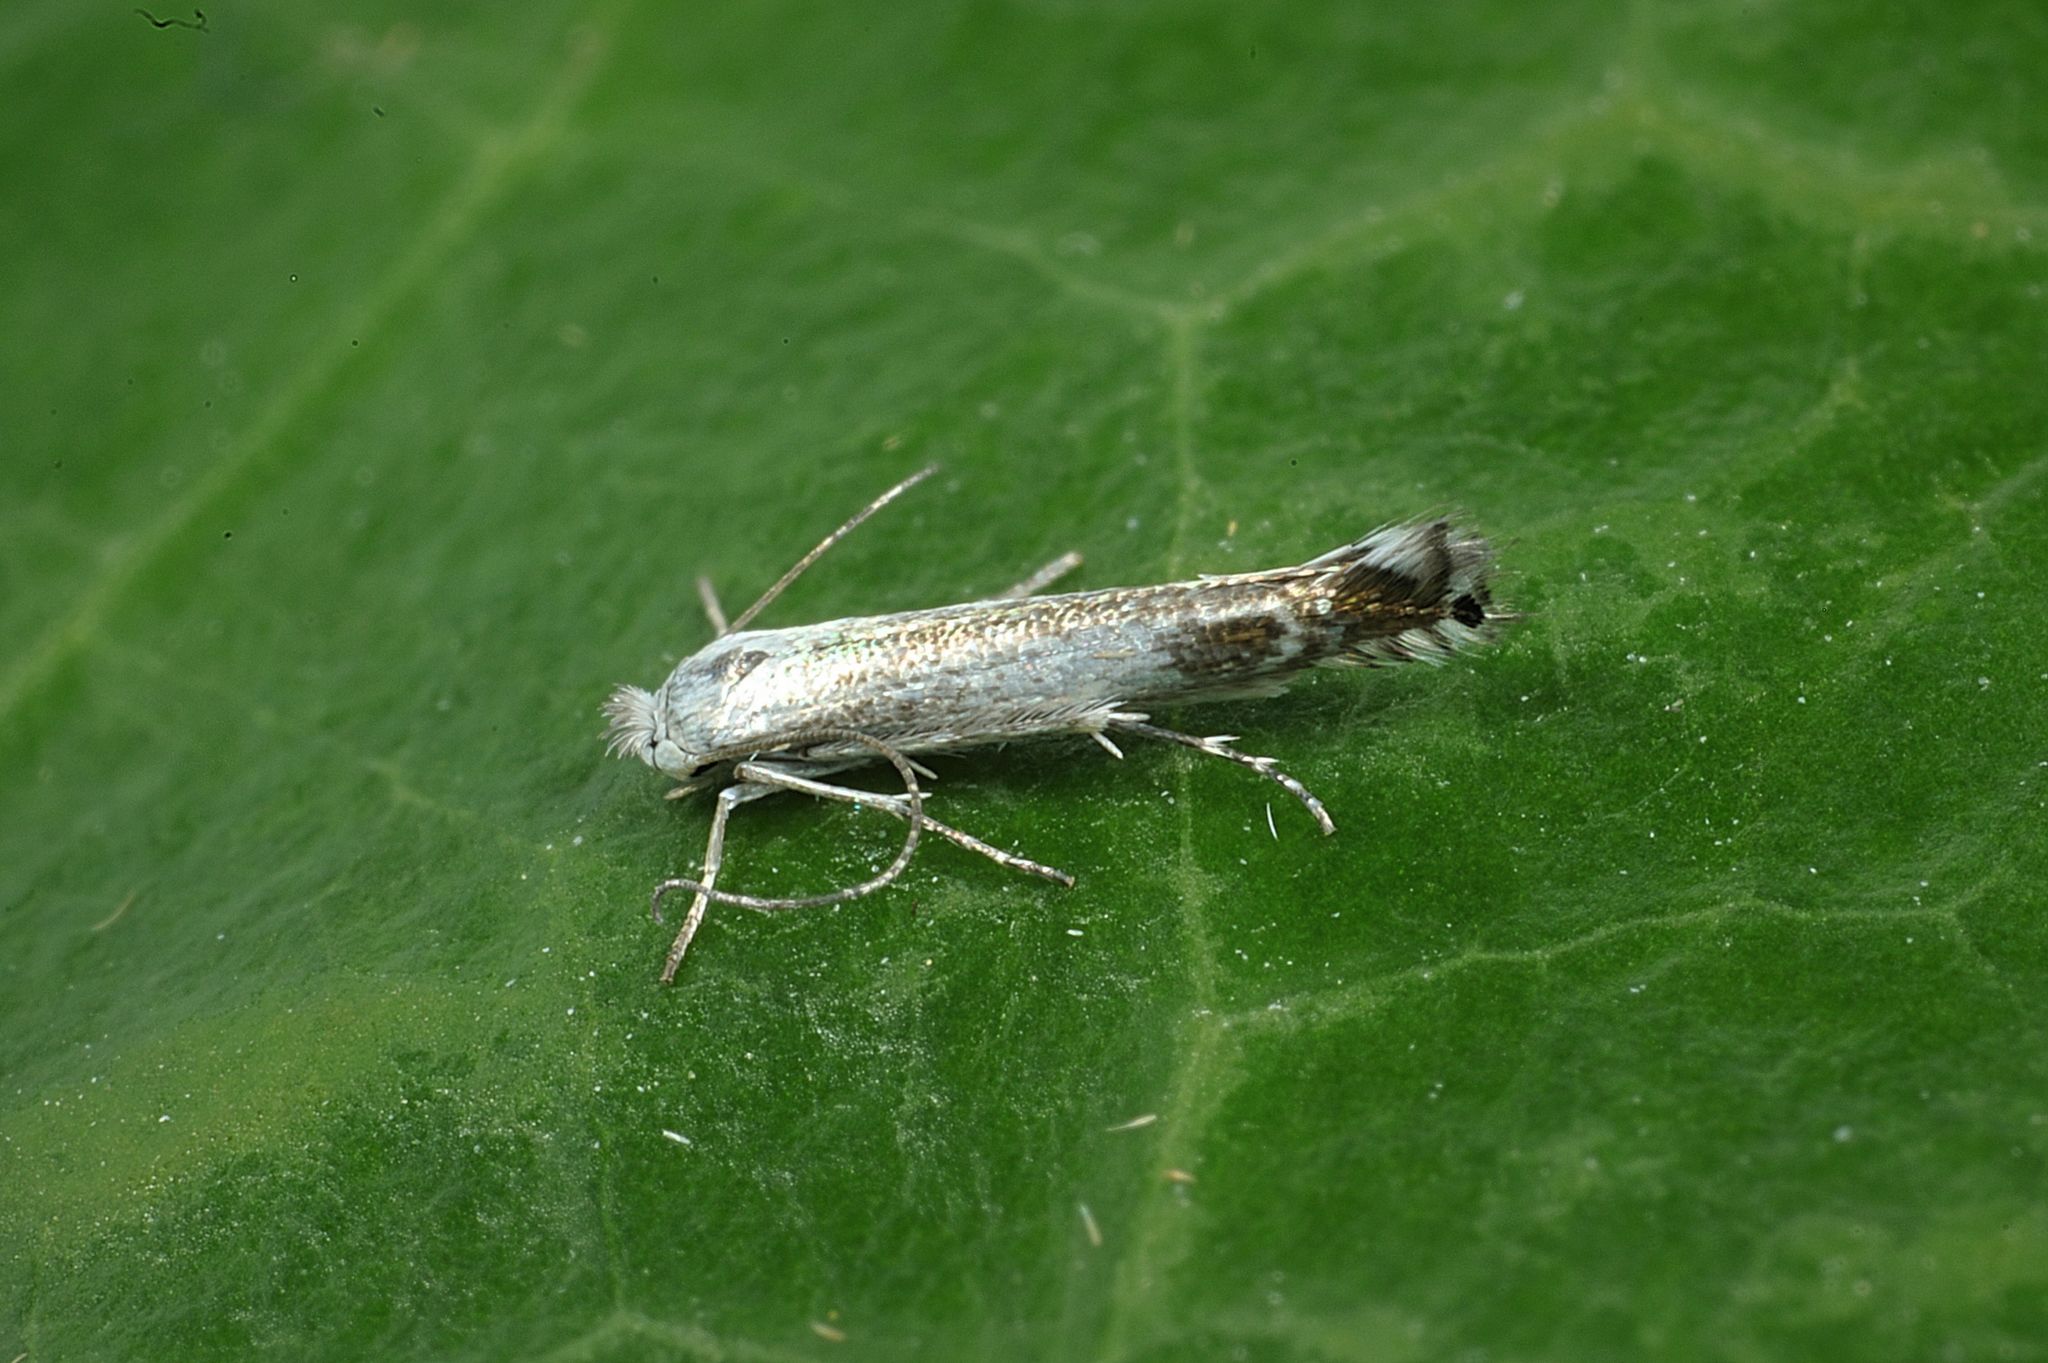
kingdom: Animalia
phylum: Arthropoda
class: Insecta
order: Lepidoptera
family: Lyonetiidae
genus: Lyonetia
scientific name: Lyonetia clerkella
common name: Apple leaf miner
